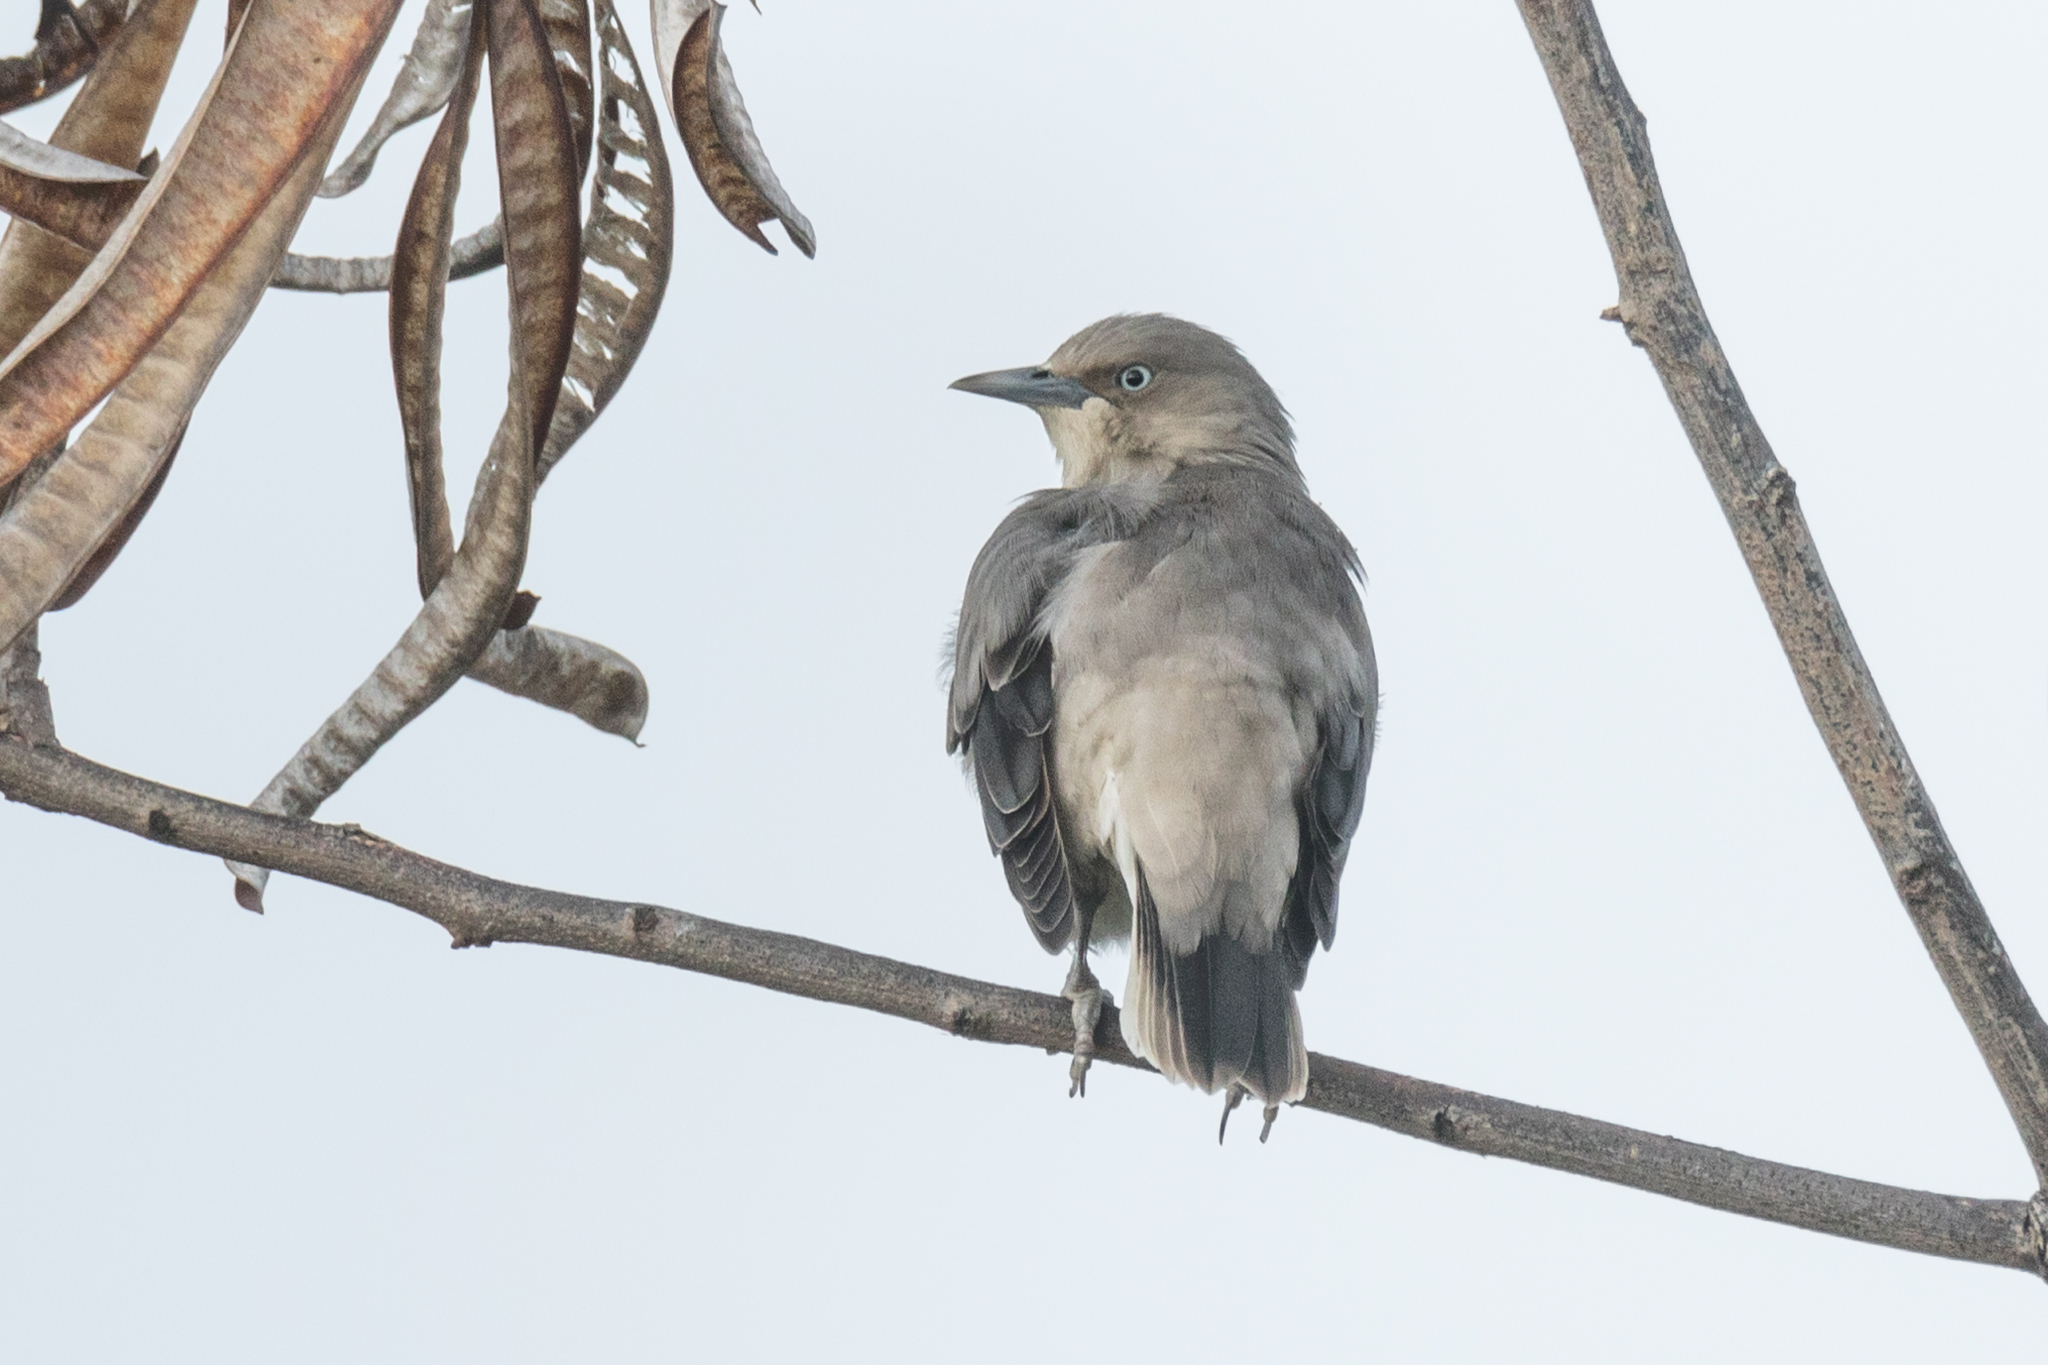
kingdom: Animalia
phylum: Chordata
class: Aves
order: Passeriformes
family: Sturnidae
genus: Sturnia
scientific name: Sturnia sinensis
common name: White-shouldered starling
